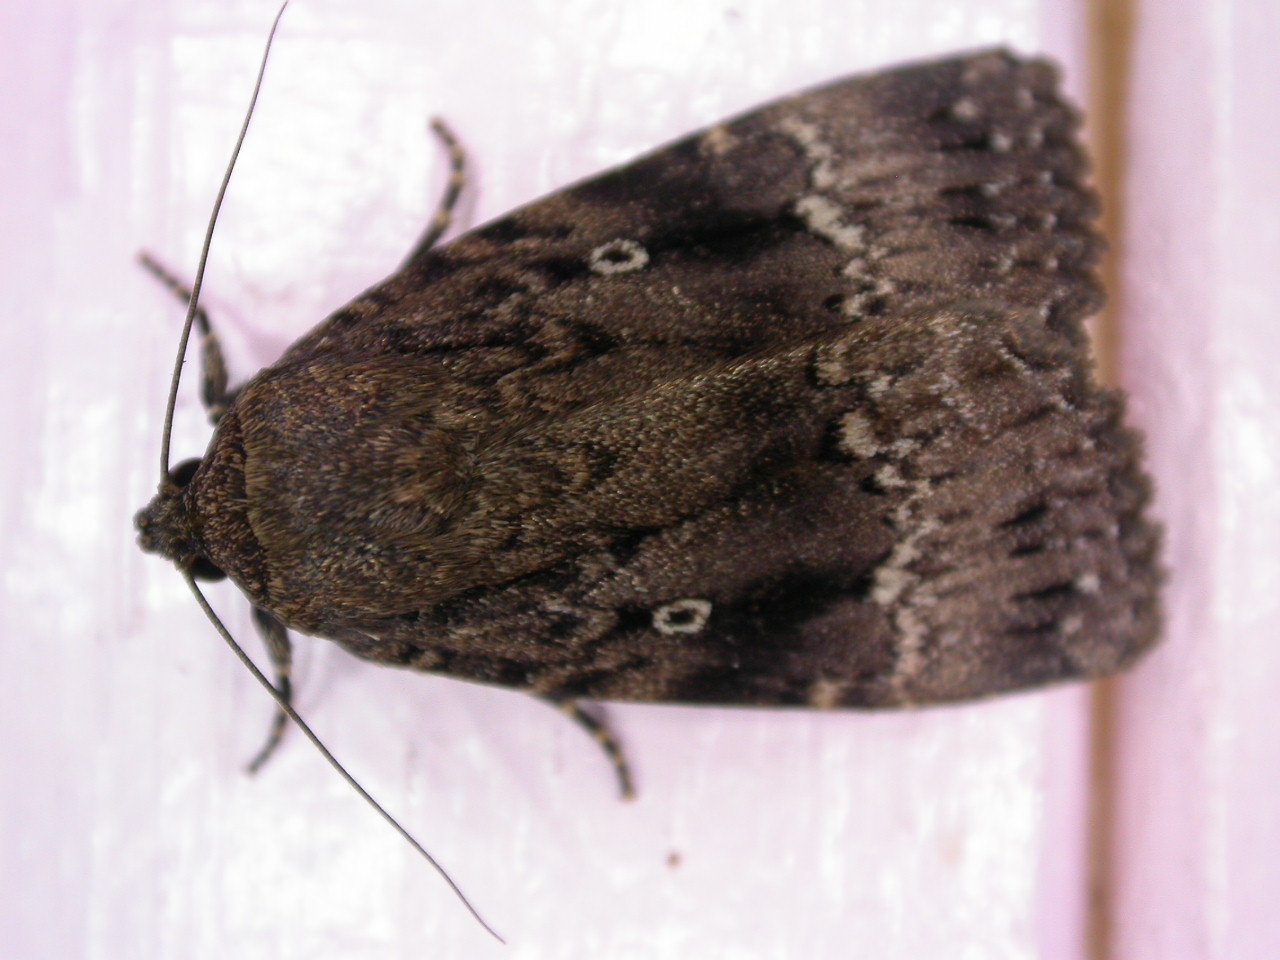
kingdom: Animalia
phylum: Arthropoda
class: Insecta
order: Lepidoptera
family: Noctuidae
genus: Amphipyra
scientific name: Amphipyra pyramidea
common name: Copper underwing
